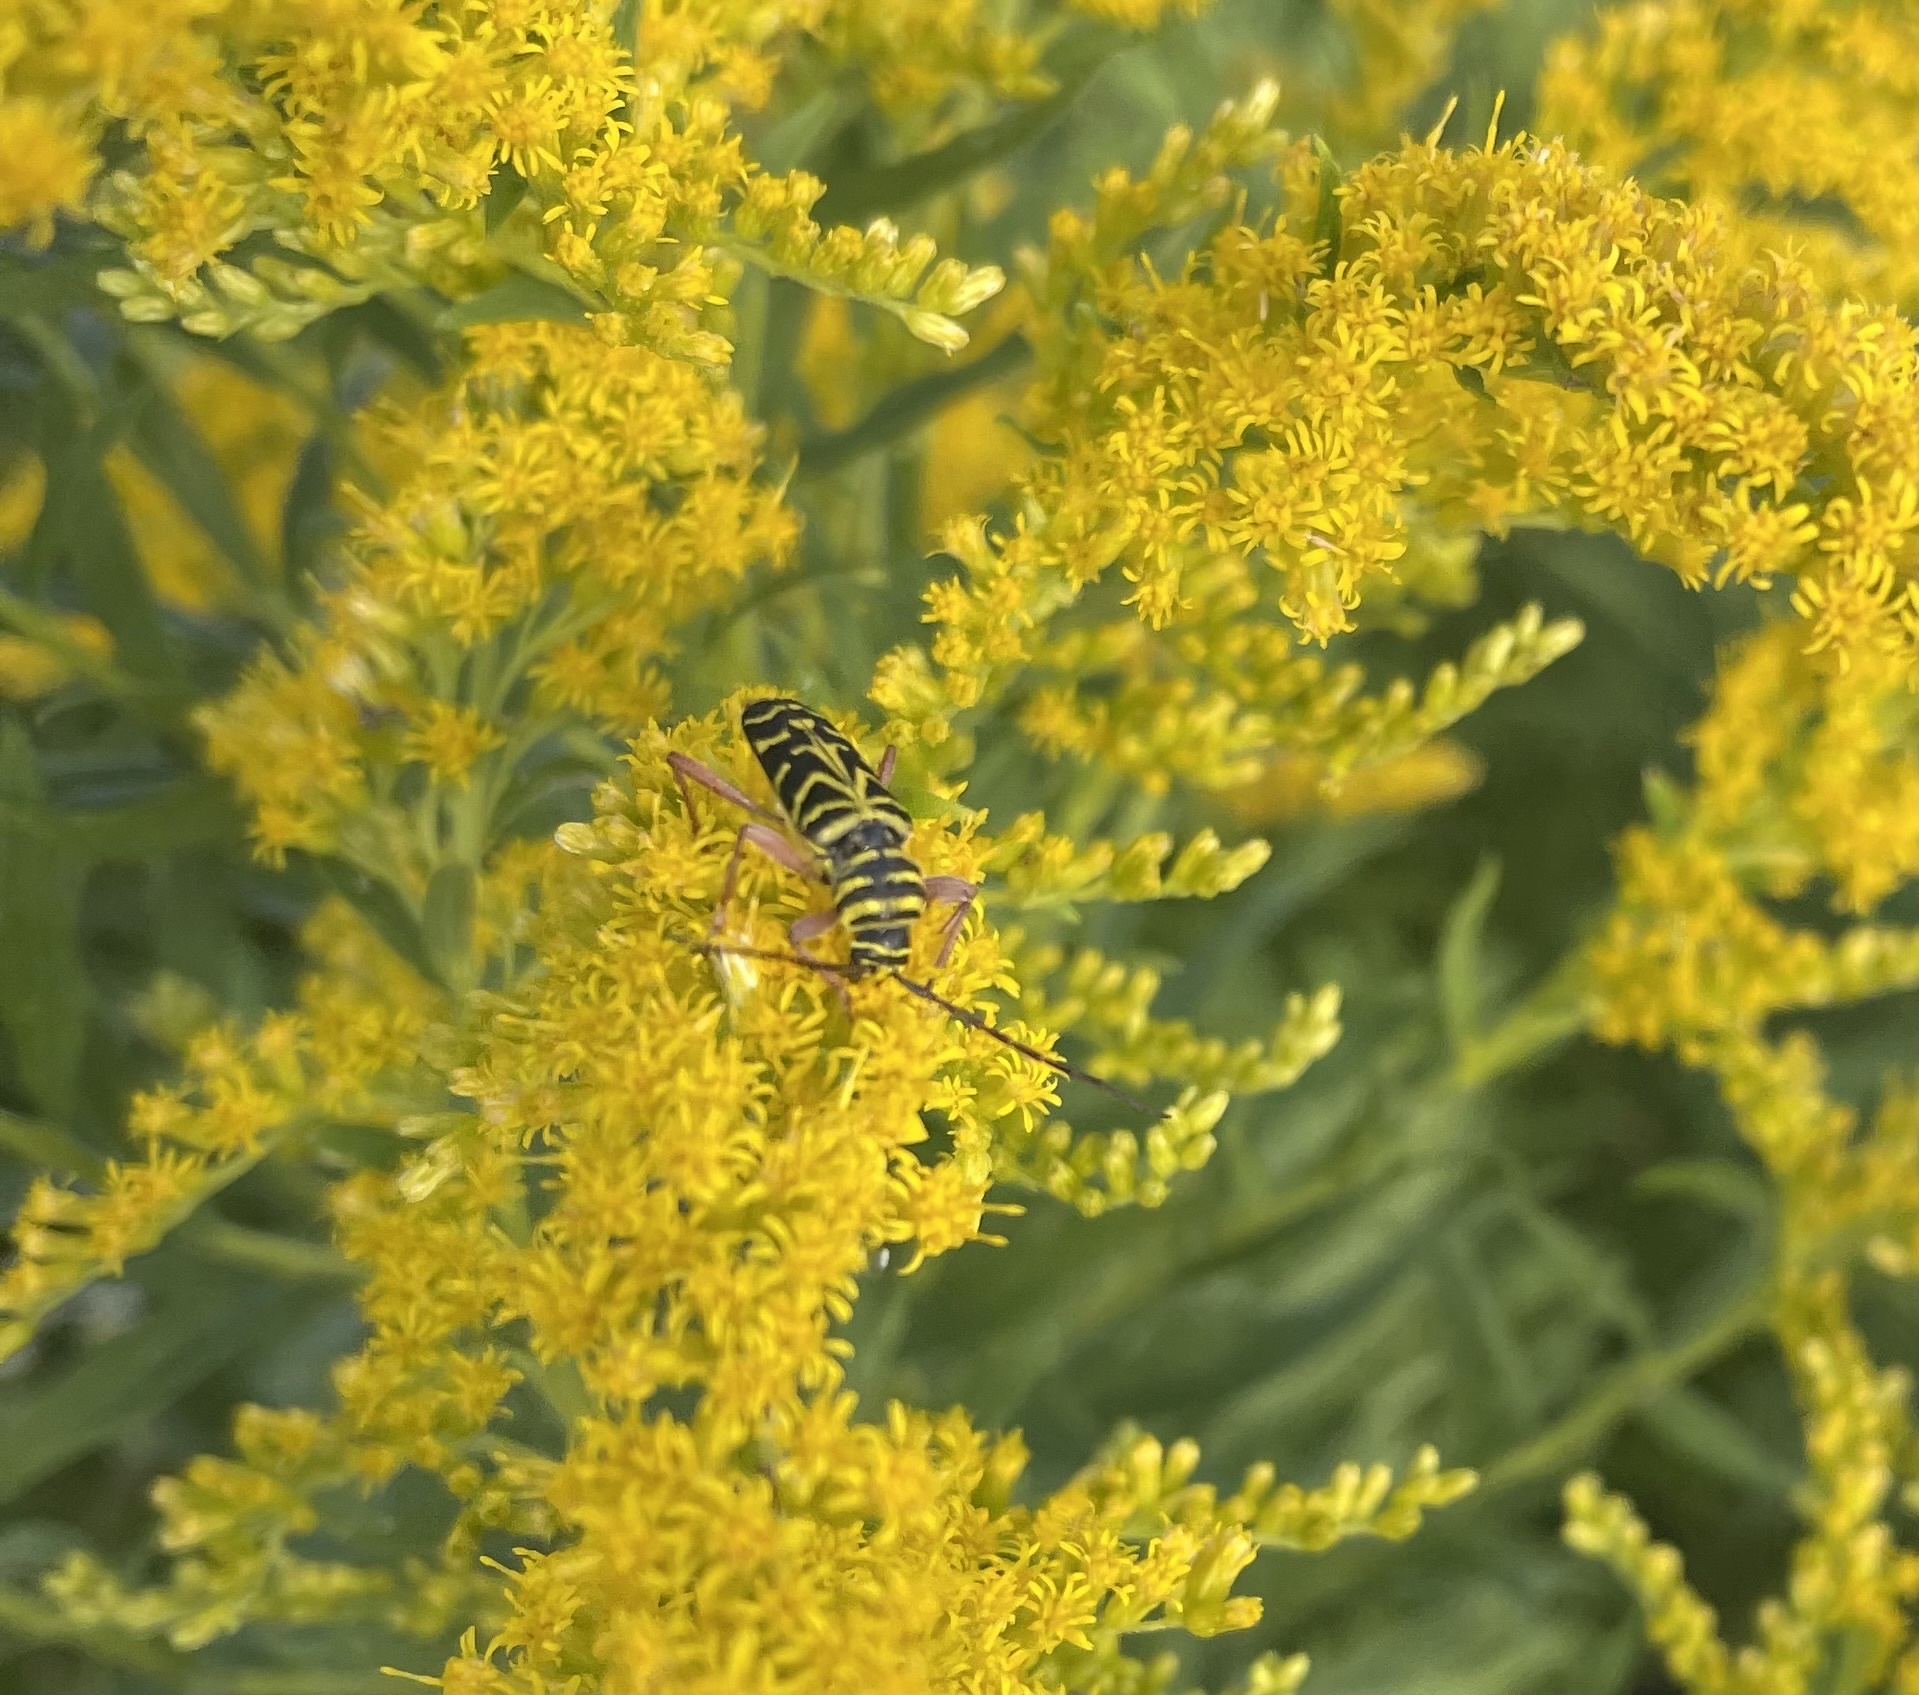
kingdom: Animalia
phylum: Arthropoda
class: Insecta
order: Coleoptera
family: Cerambycidae
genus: Megacyllene
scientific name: Megacyllene robiniae
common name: Locust borer
